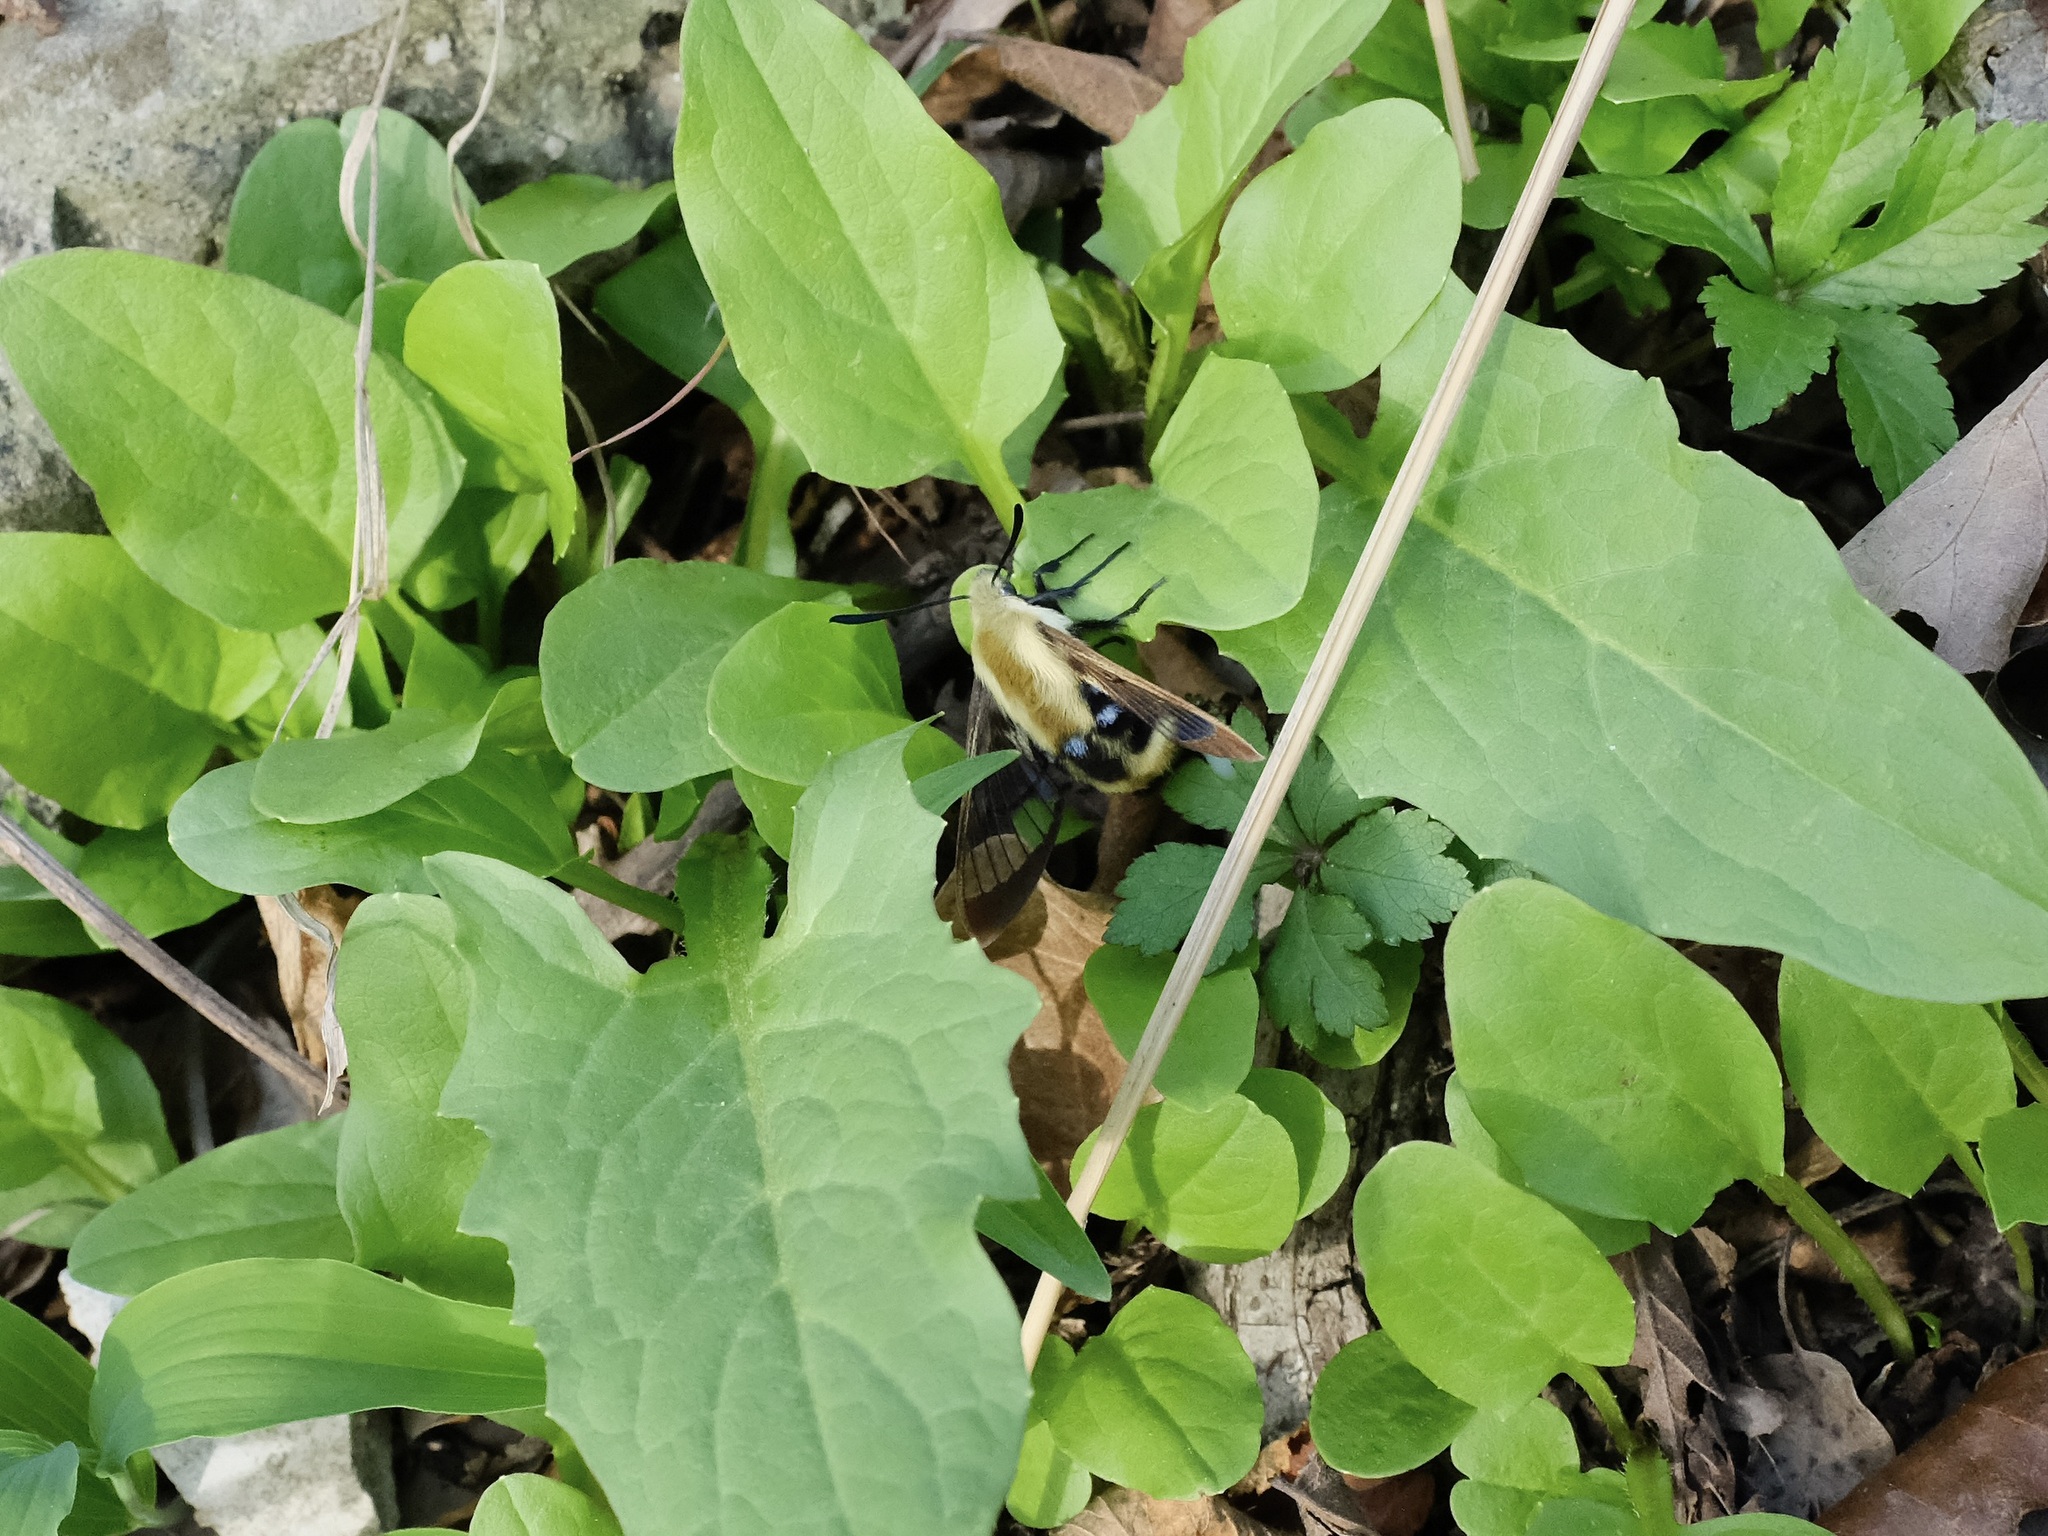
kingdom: Animalia
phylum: Arthropoda
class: Insecta
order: Lepidoptera
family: Sphingidae
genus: Hemaris
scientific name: Hemaris diffinis
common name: Bumblebee moth
